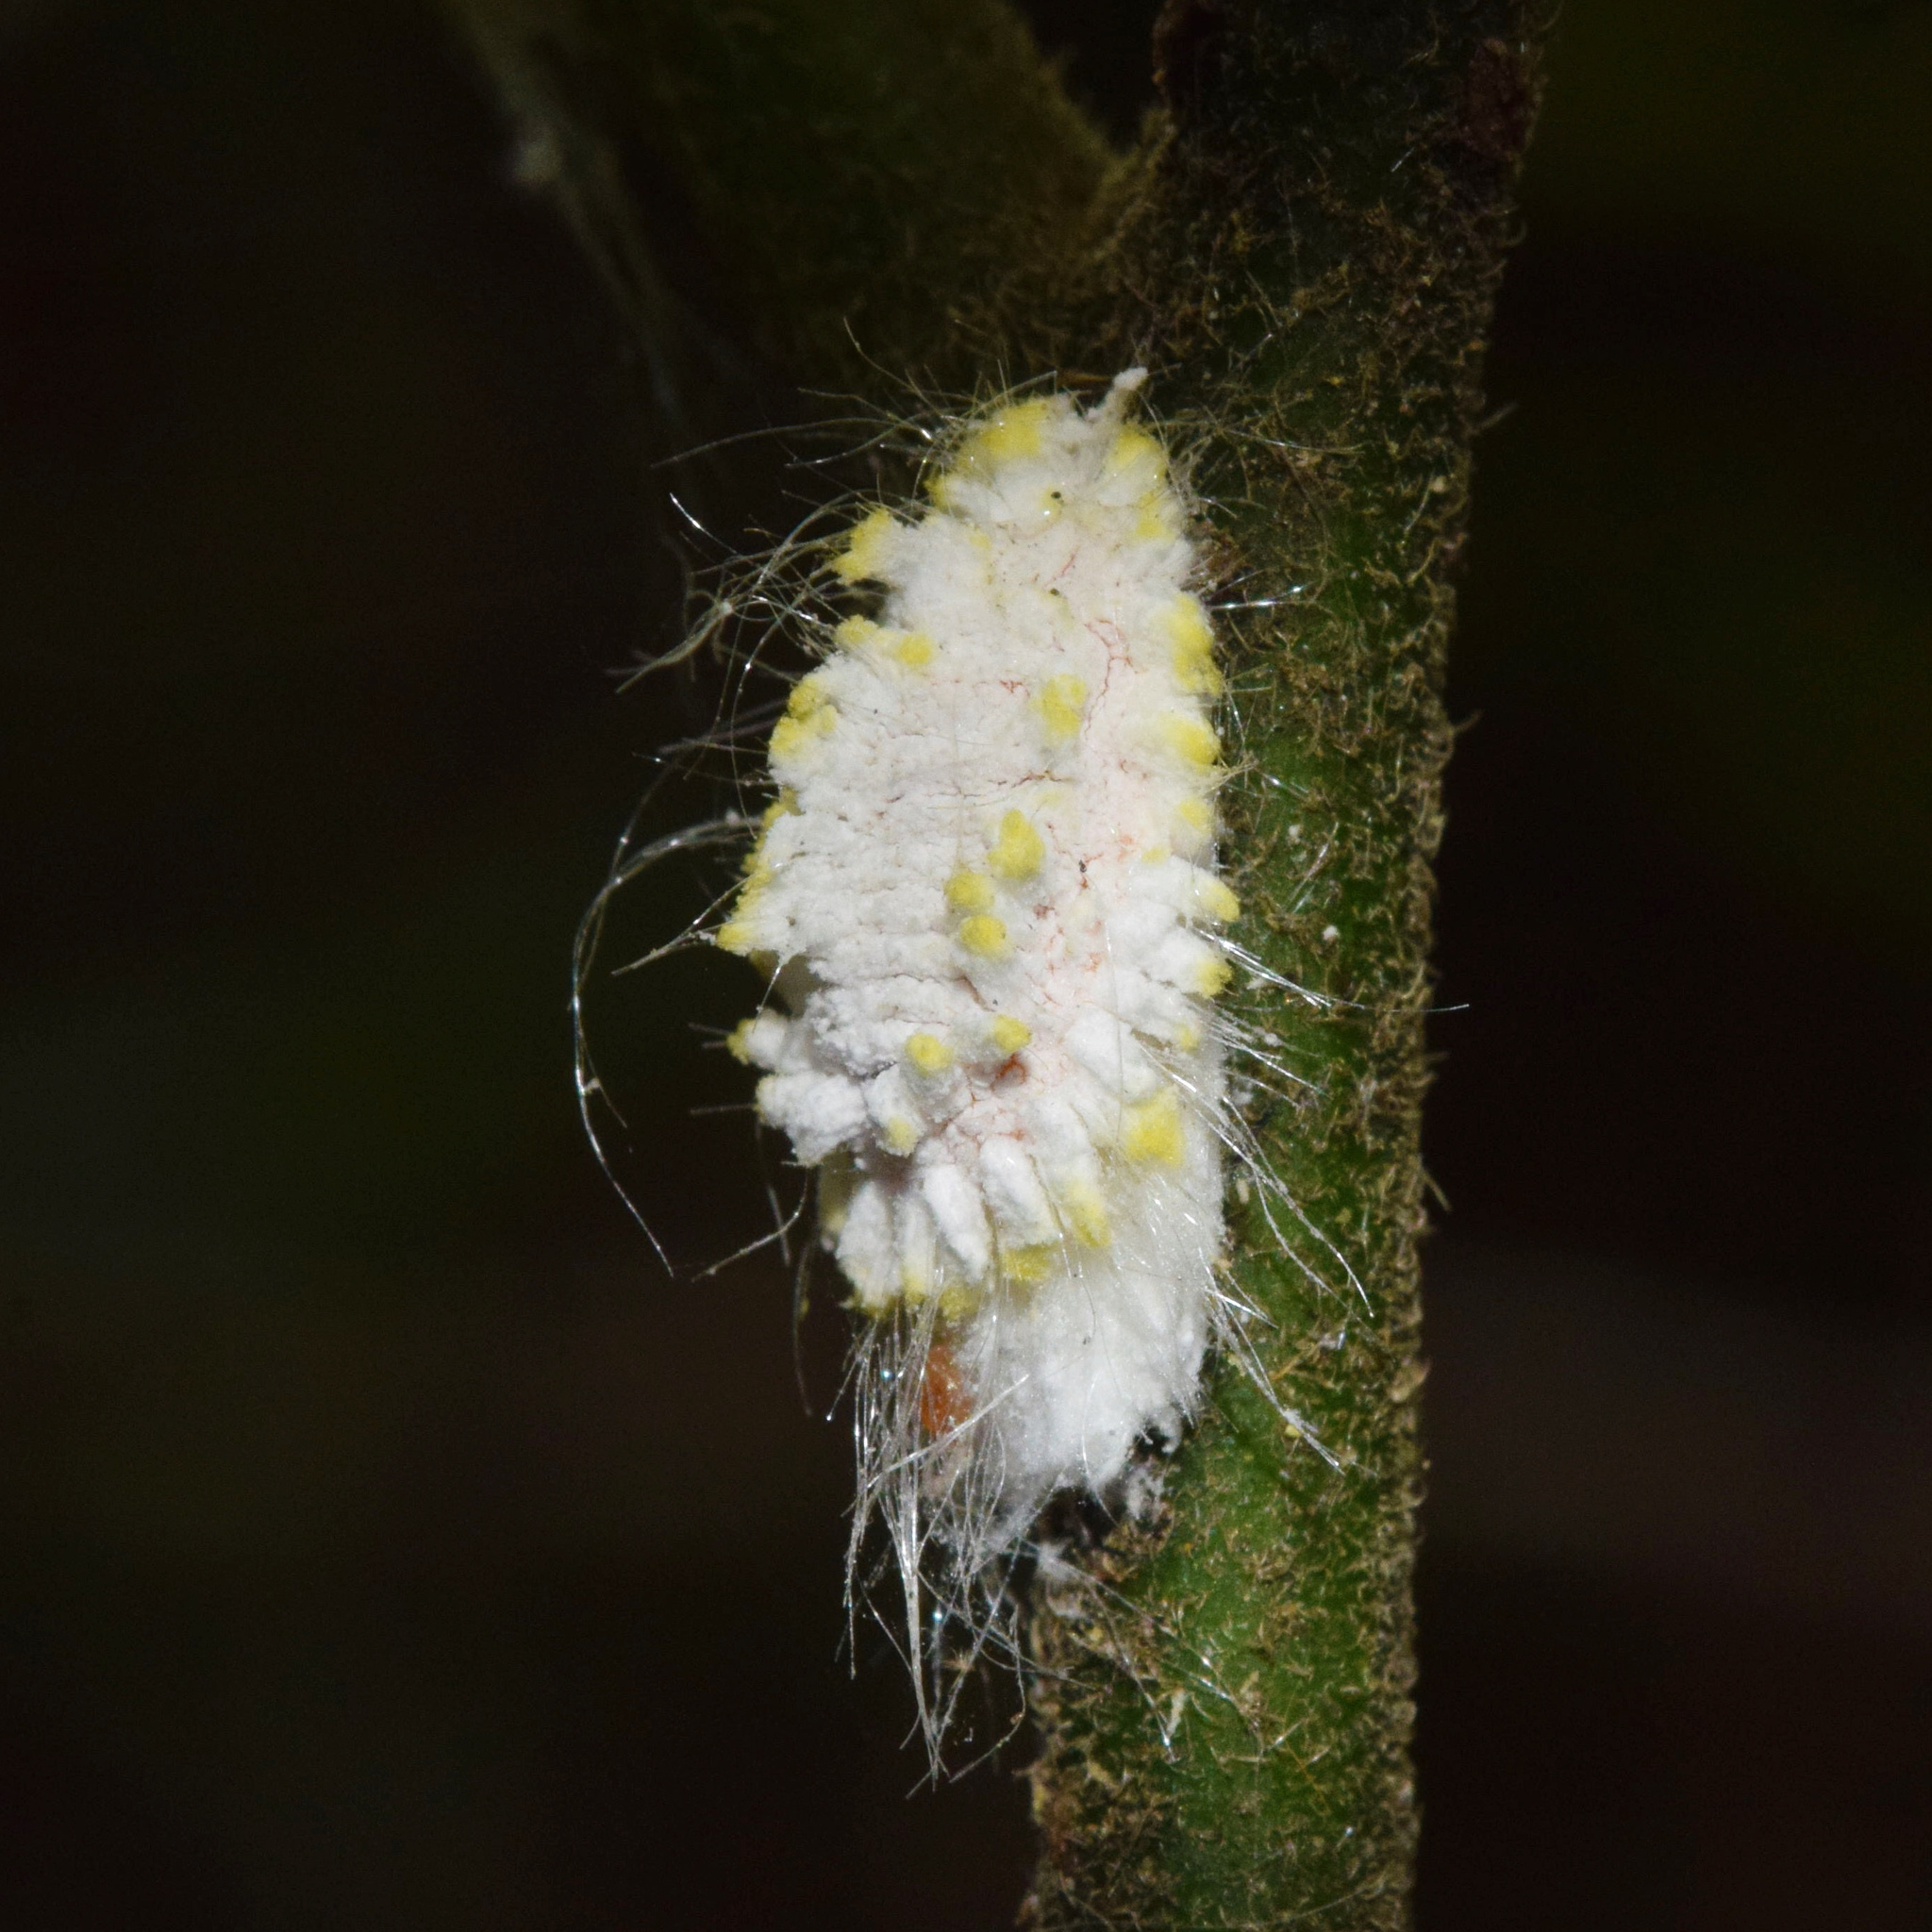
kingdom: Animalia
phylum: Arthropoda
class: Insecta
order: Hemiptera
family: Margarodidae
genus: Icerya
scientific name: Icerya seychellarum
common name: Iceplant scale
